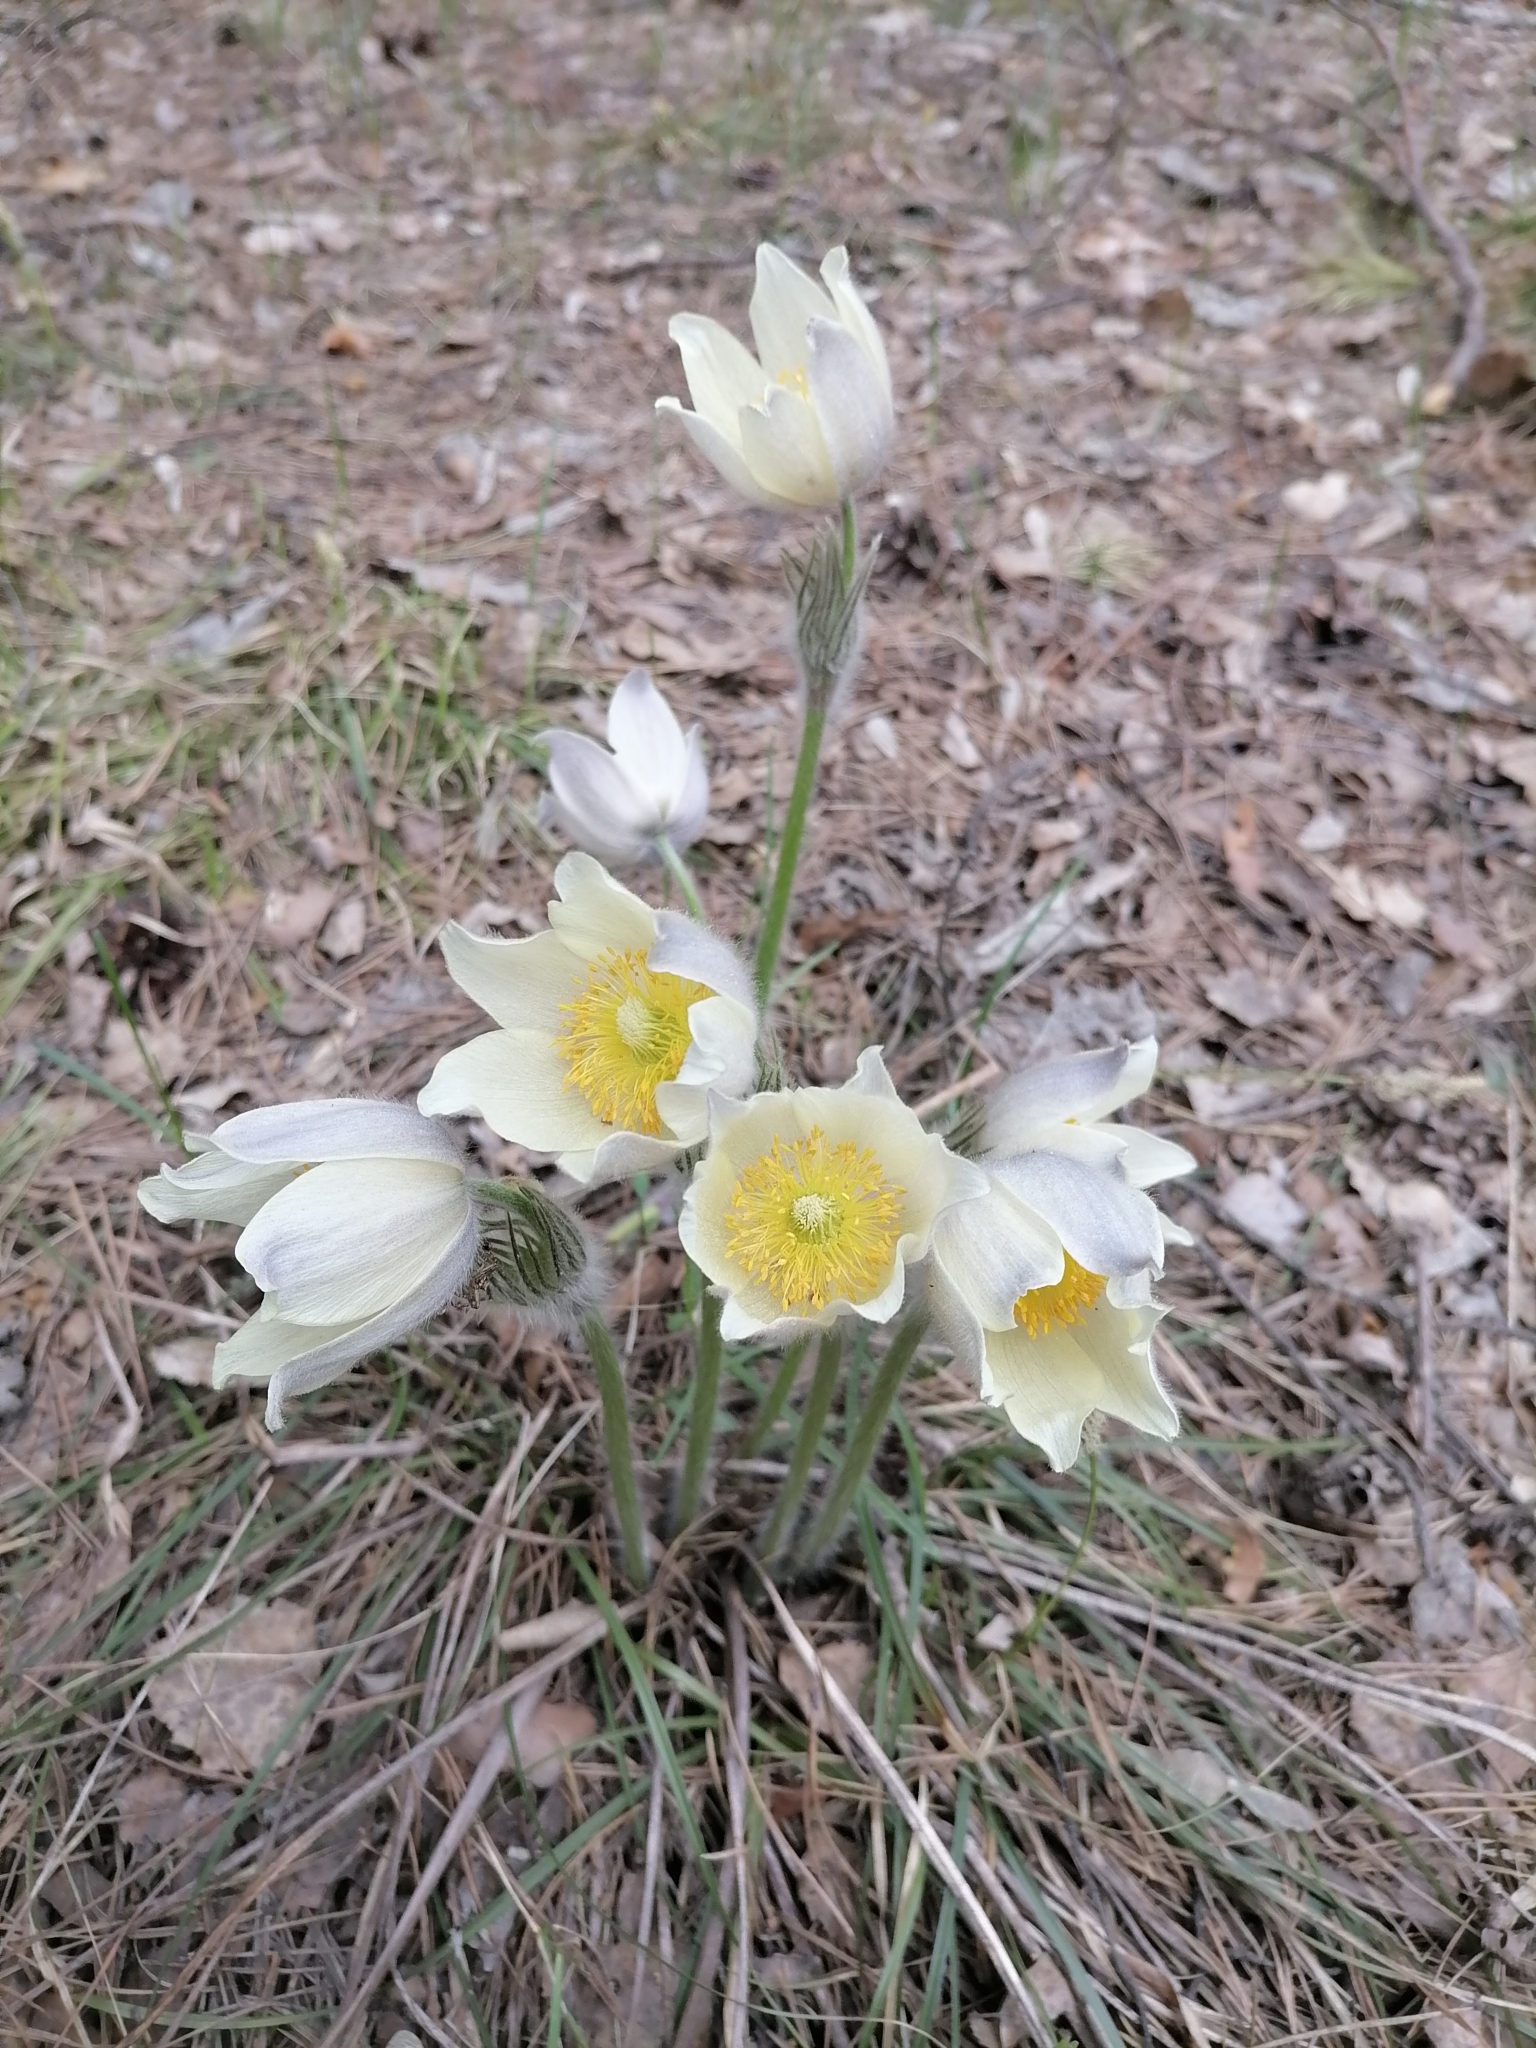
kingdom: Plantae
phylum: Tracheophyta
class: Magnoliopsida
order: Ranunculales
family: Ranunculaceae
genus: Pulsatilla
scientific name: Pulsatilla patens
